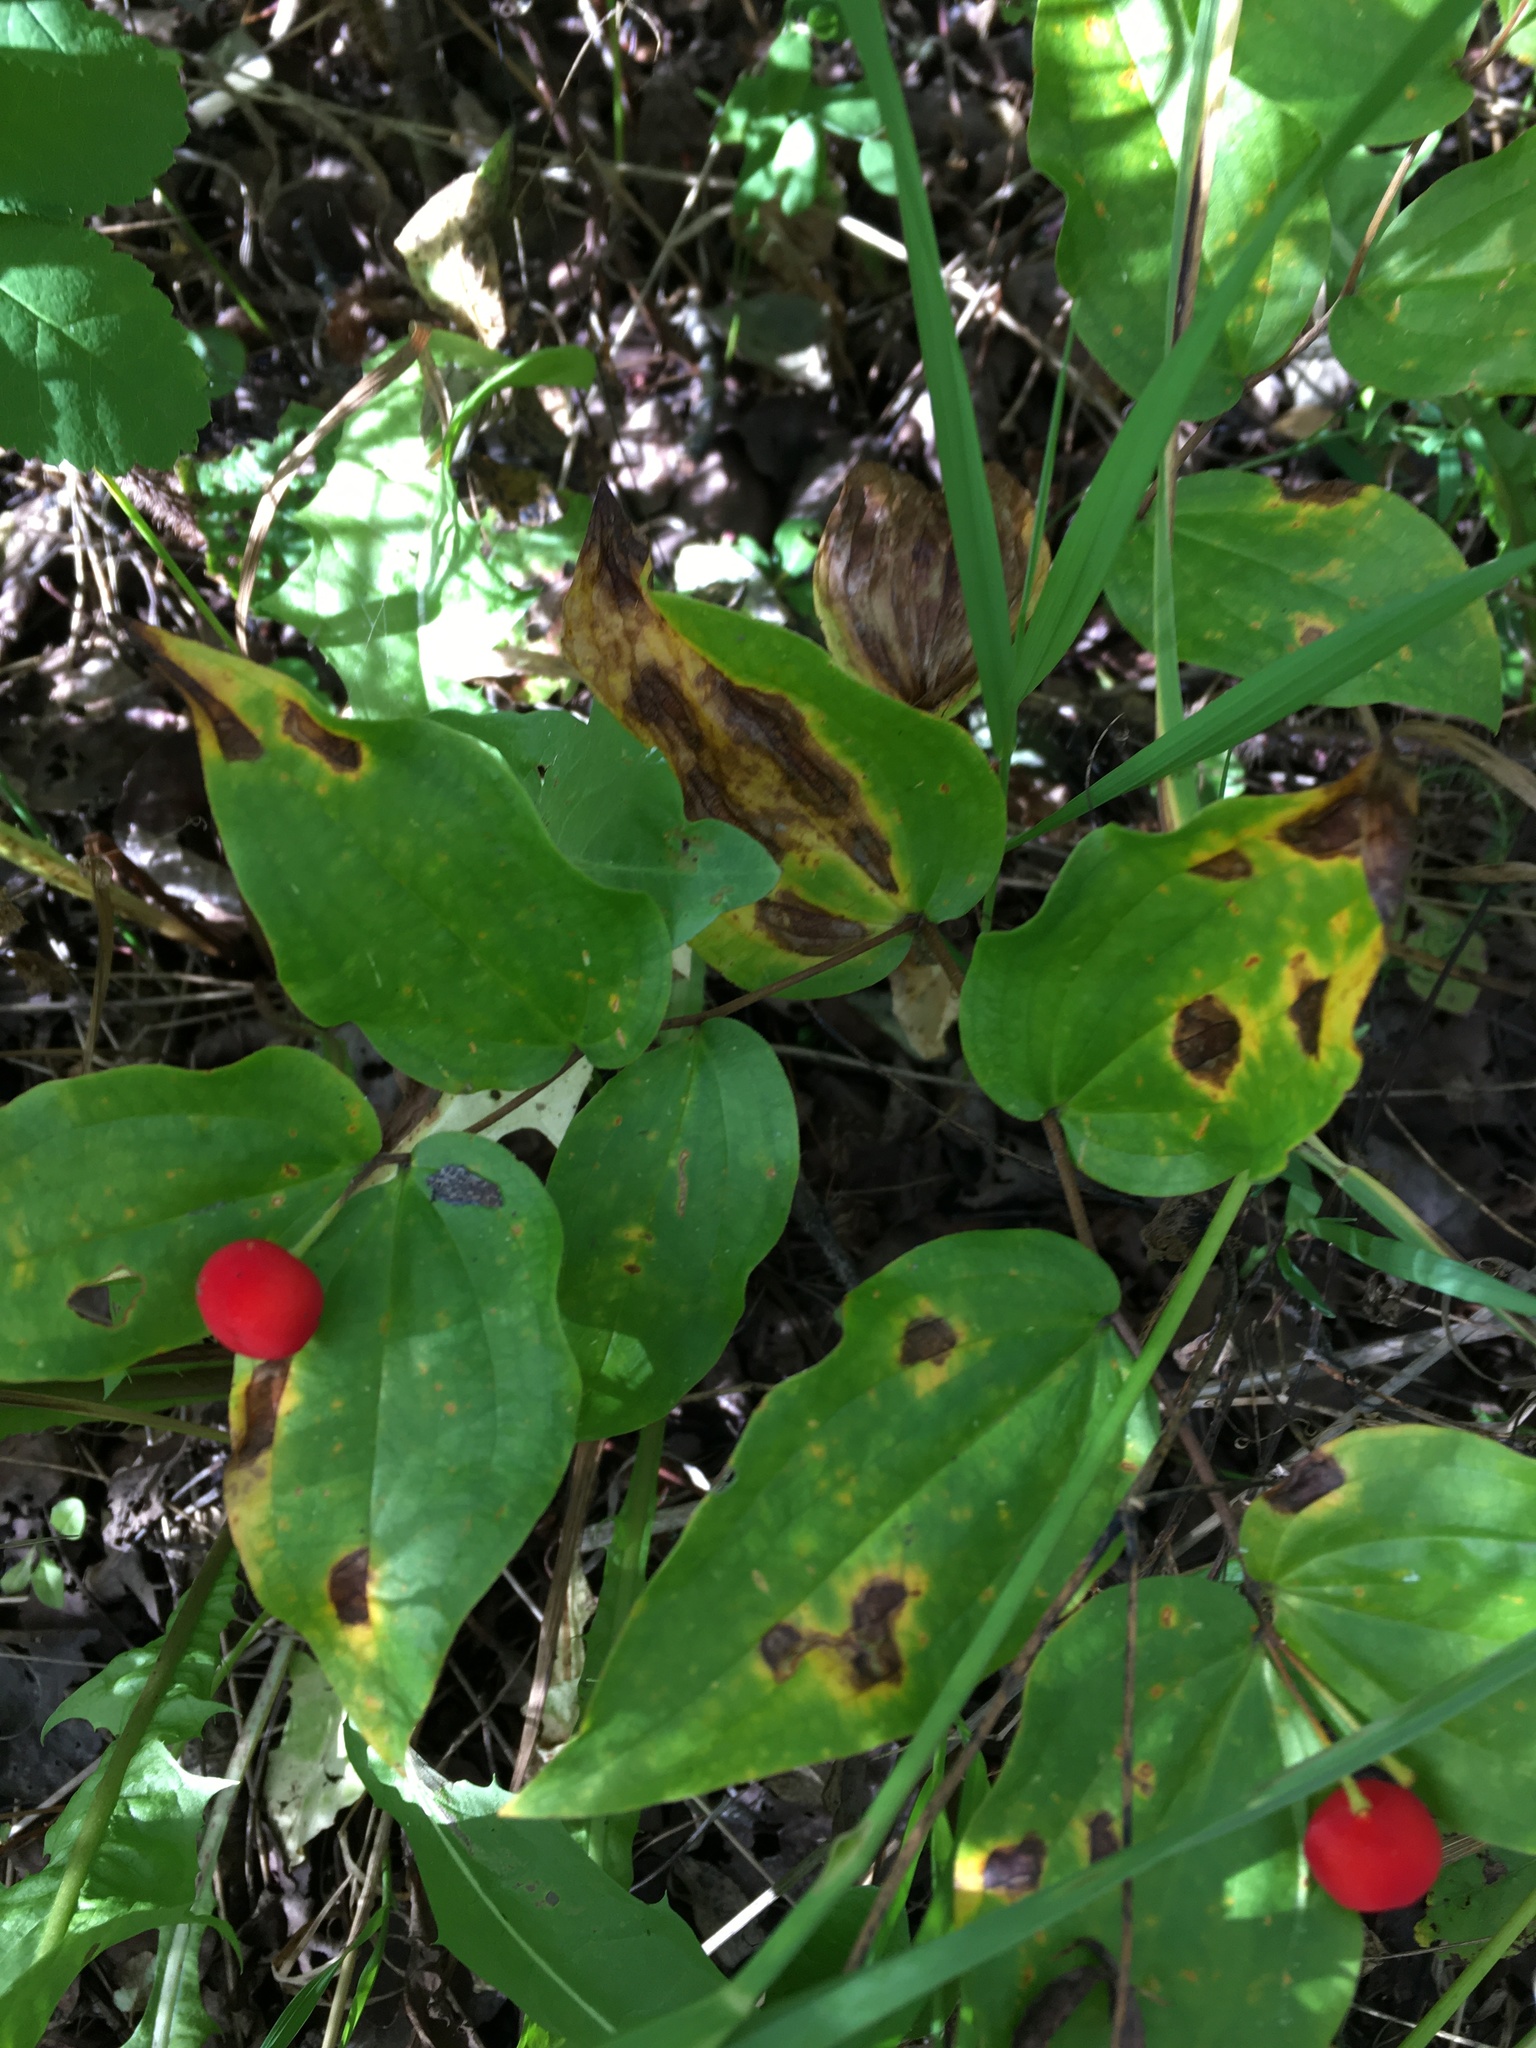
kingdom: Plantae
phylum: Tracheophyta
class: Liliopsida
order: Liliales
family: Liliaceae
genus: Prosartes
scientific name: Prosartes trachycarpa
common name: Rough-fruit fairy-bells
